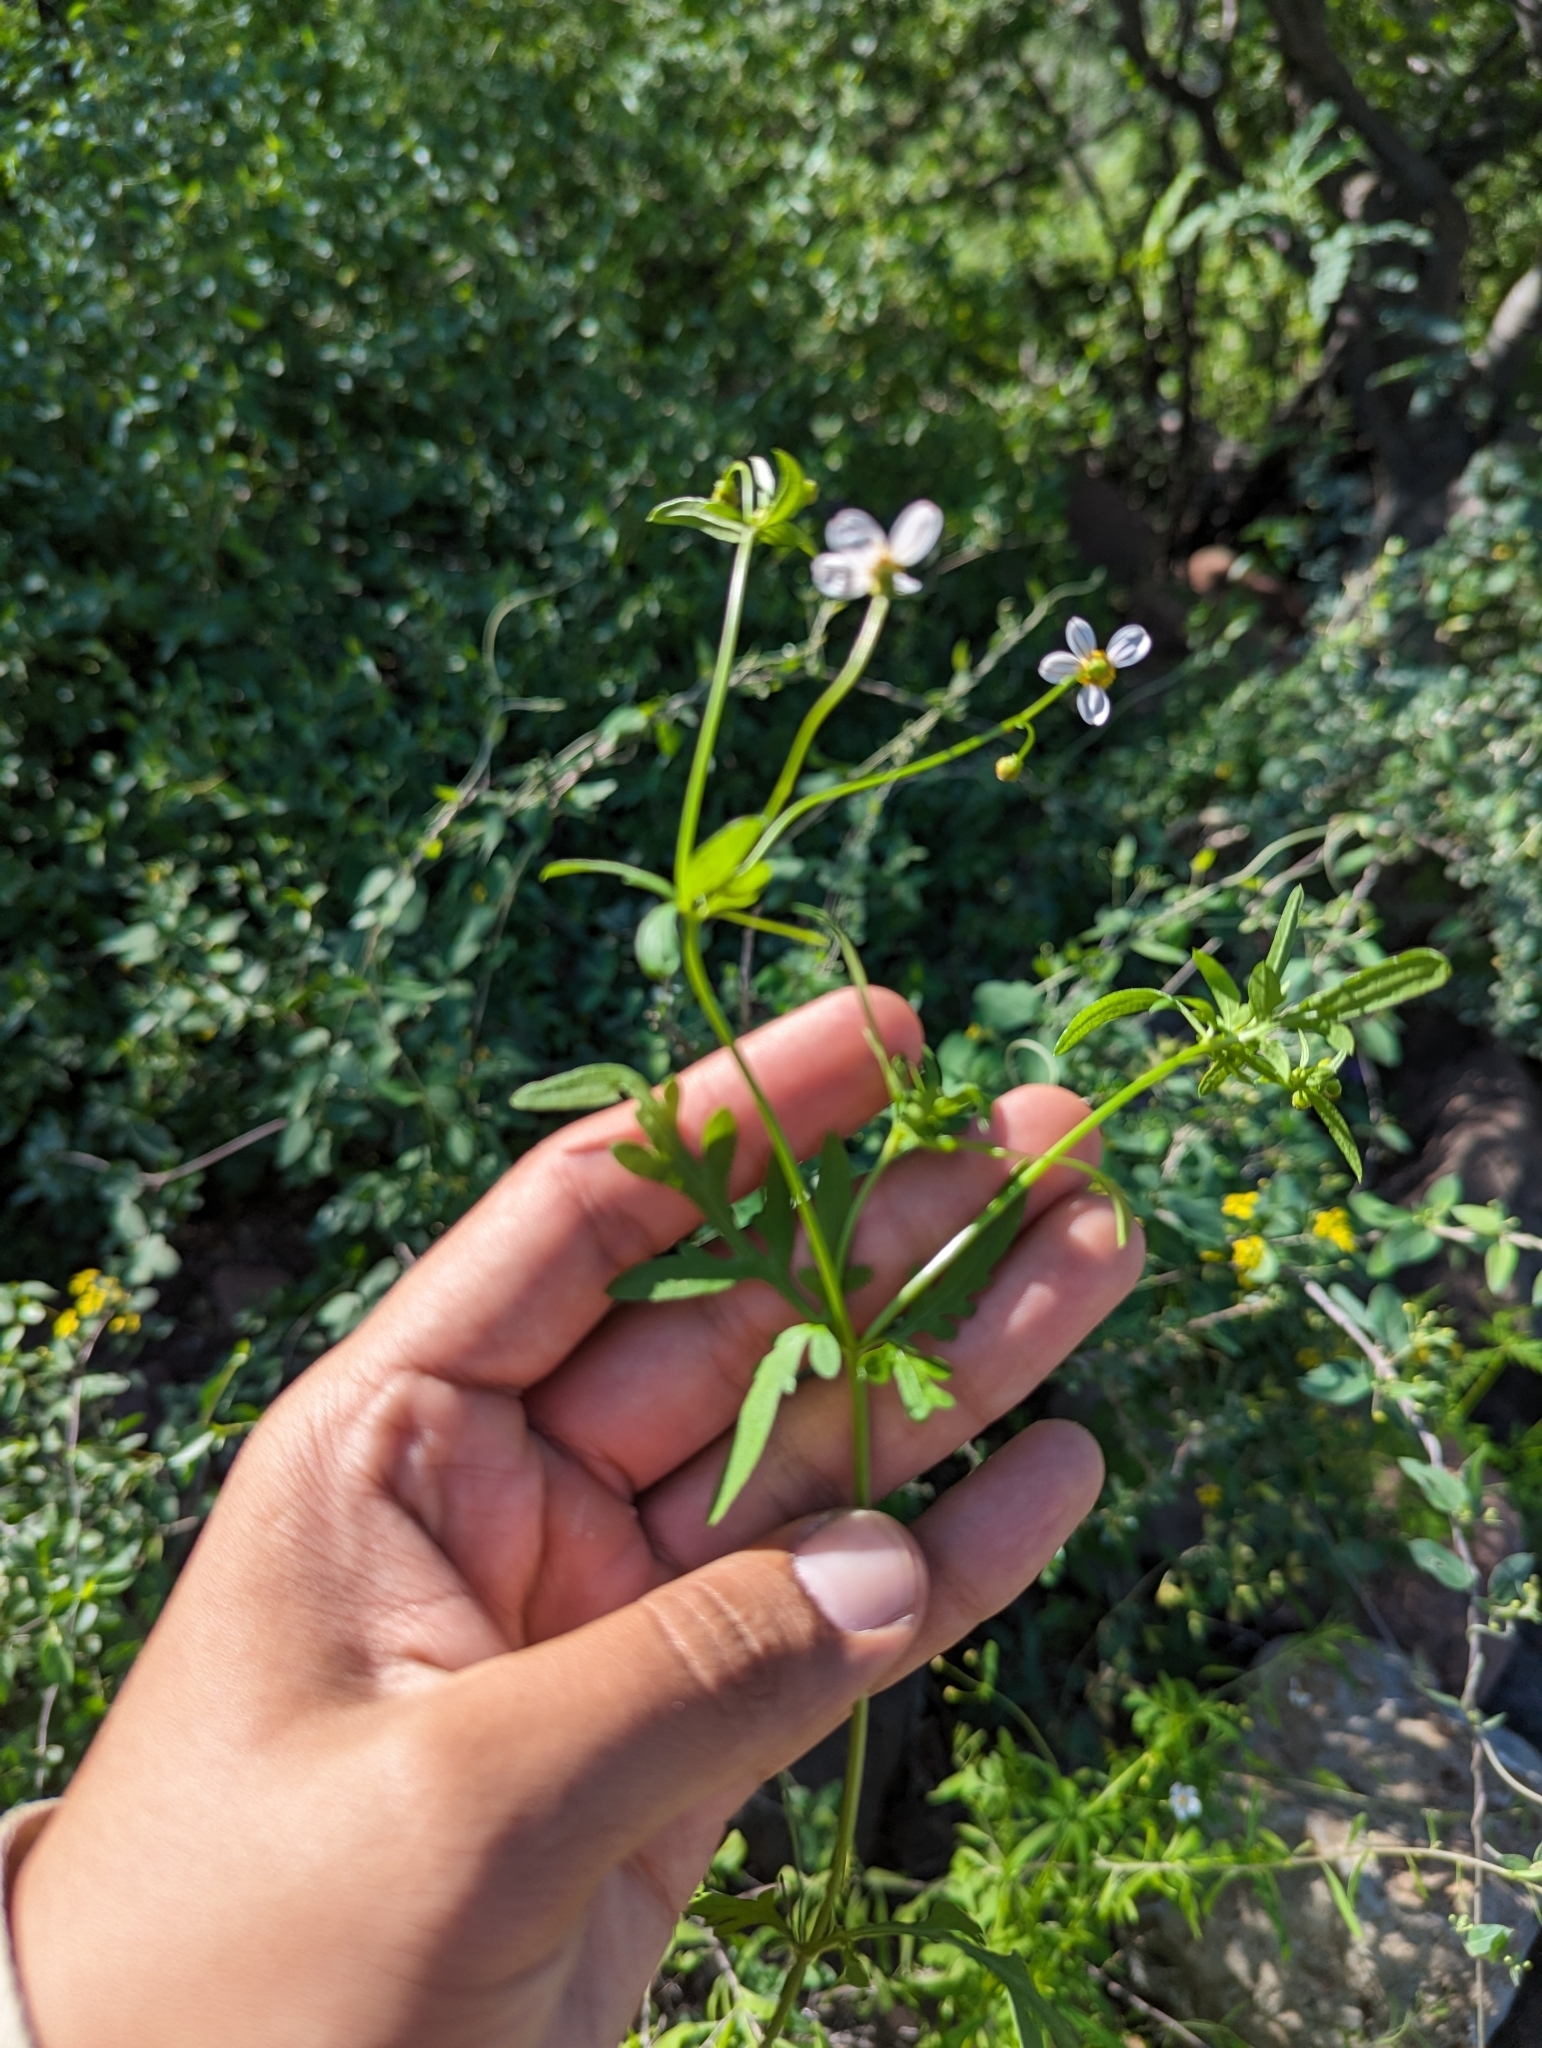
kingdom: Plantae
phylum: Tracheophyta
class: Magnoliopsida
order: Asterales
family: Asteraceae
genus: Coreocarpus
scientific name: Coreocarpus parthenioides
